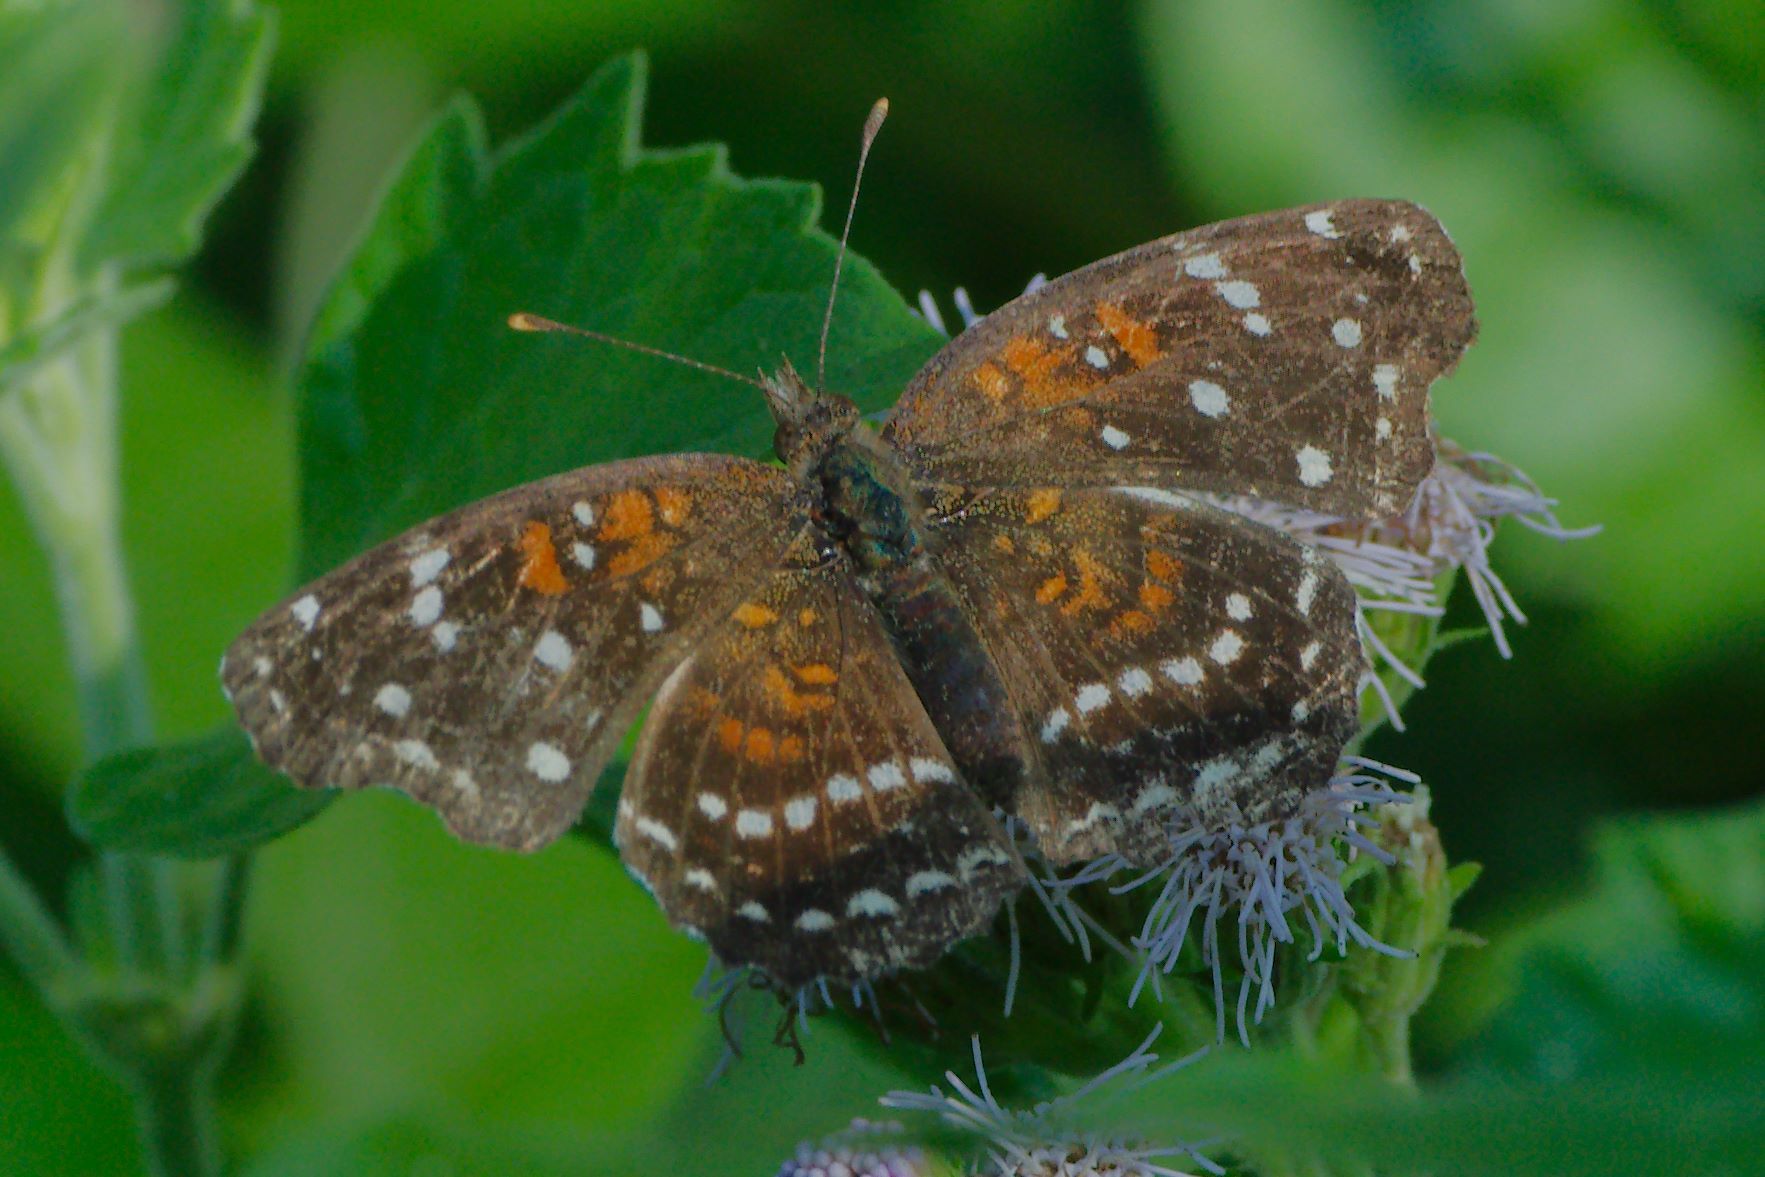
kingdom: Animalia
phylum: Arthropoda
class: Insecta
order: Lepidoptera
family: Nymphalidae
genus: Anthanassa
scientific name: Anthanassa texana
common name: Texan crescent
